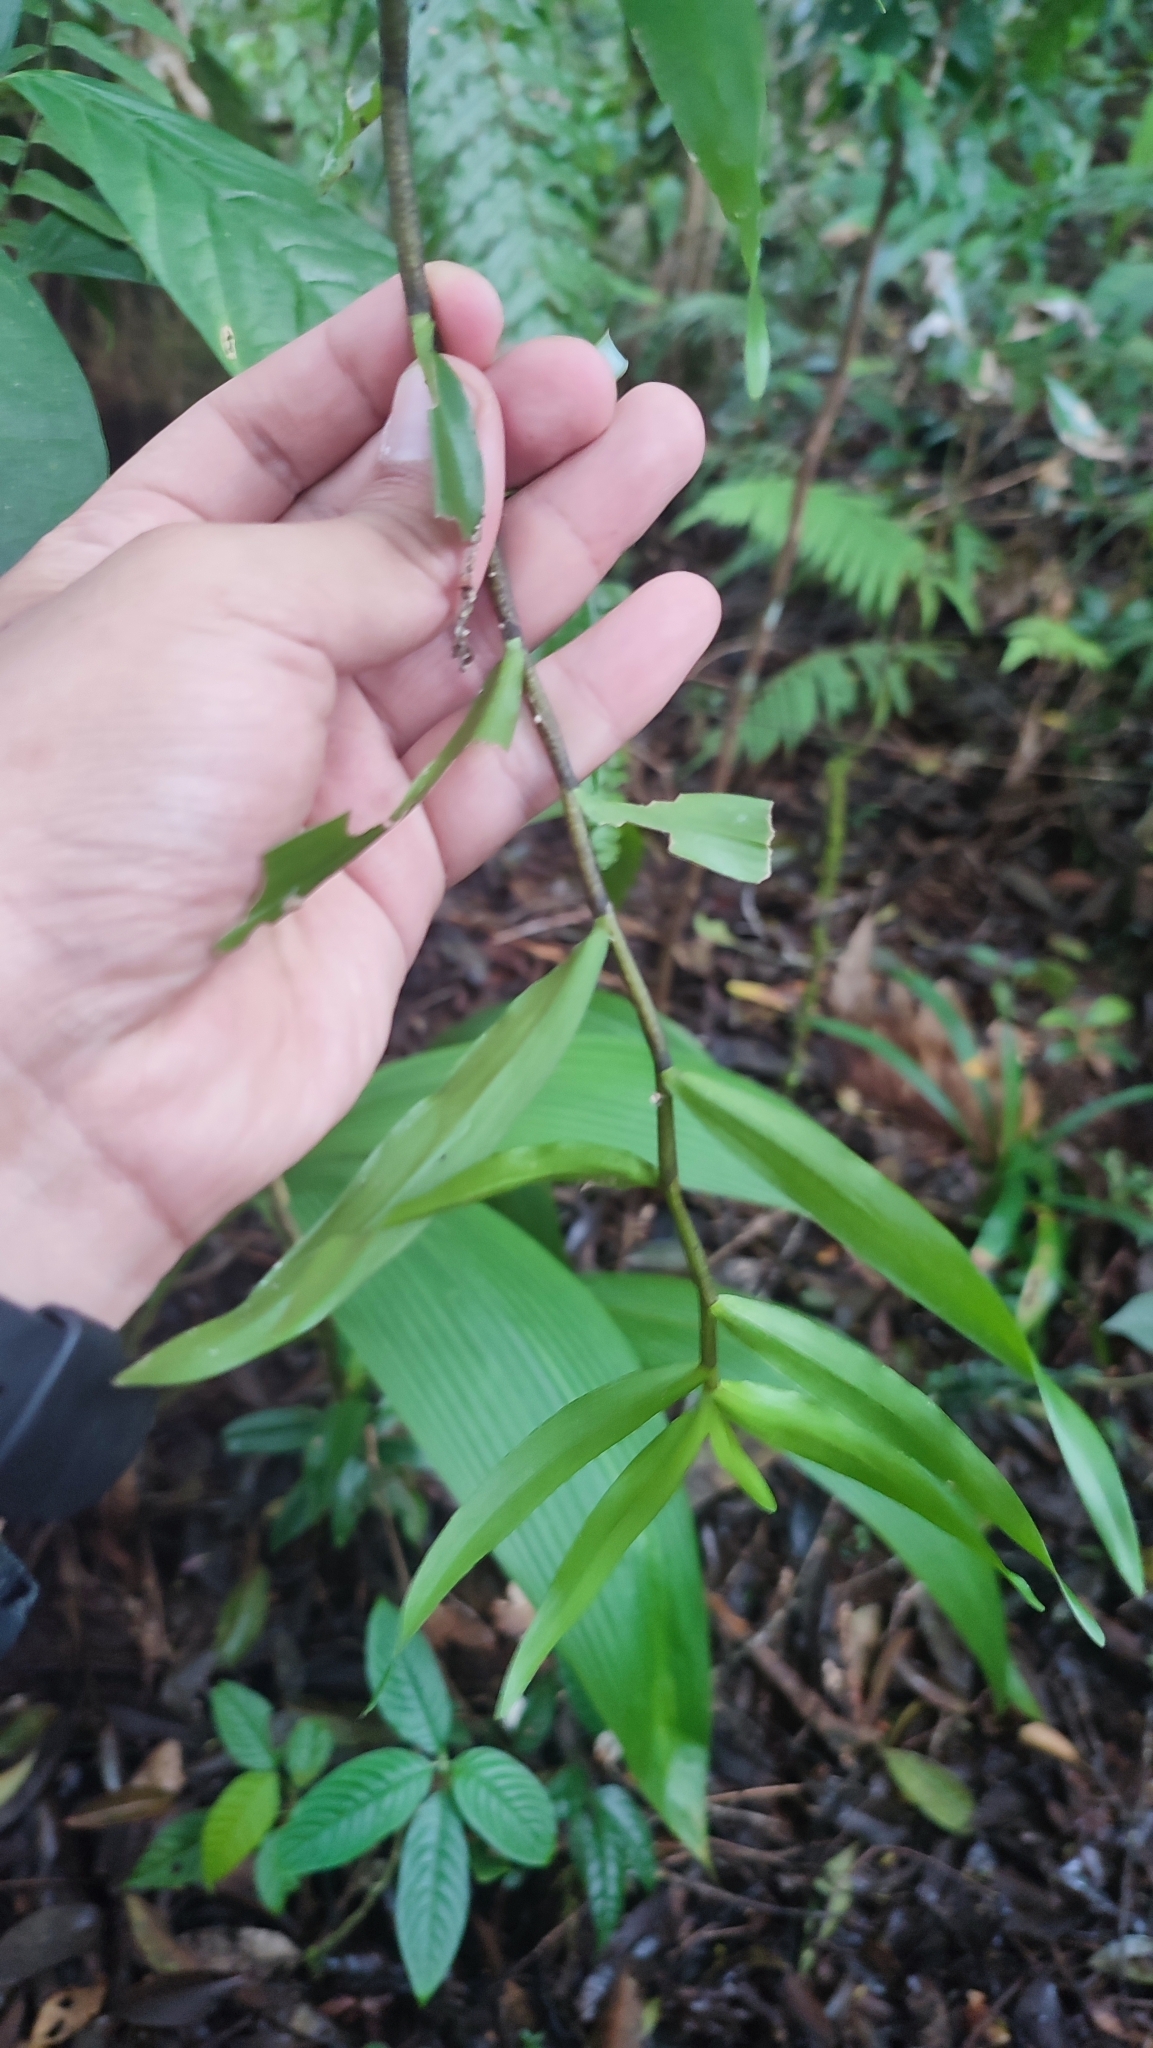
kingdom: Plantae
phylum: Tracheophyta
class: Liliopsida
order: Asparagales
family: Orchidaceae
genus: Dendrobium
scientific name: Dendrobium hasseltii
